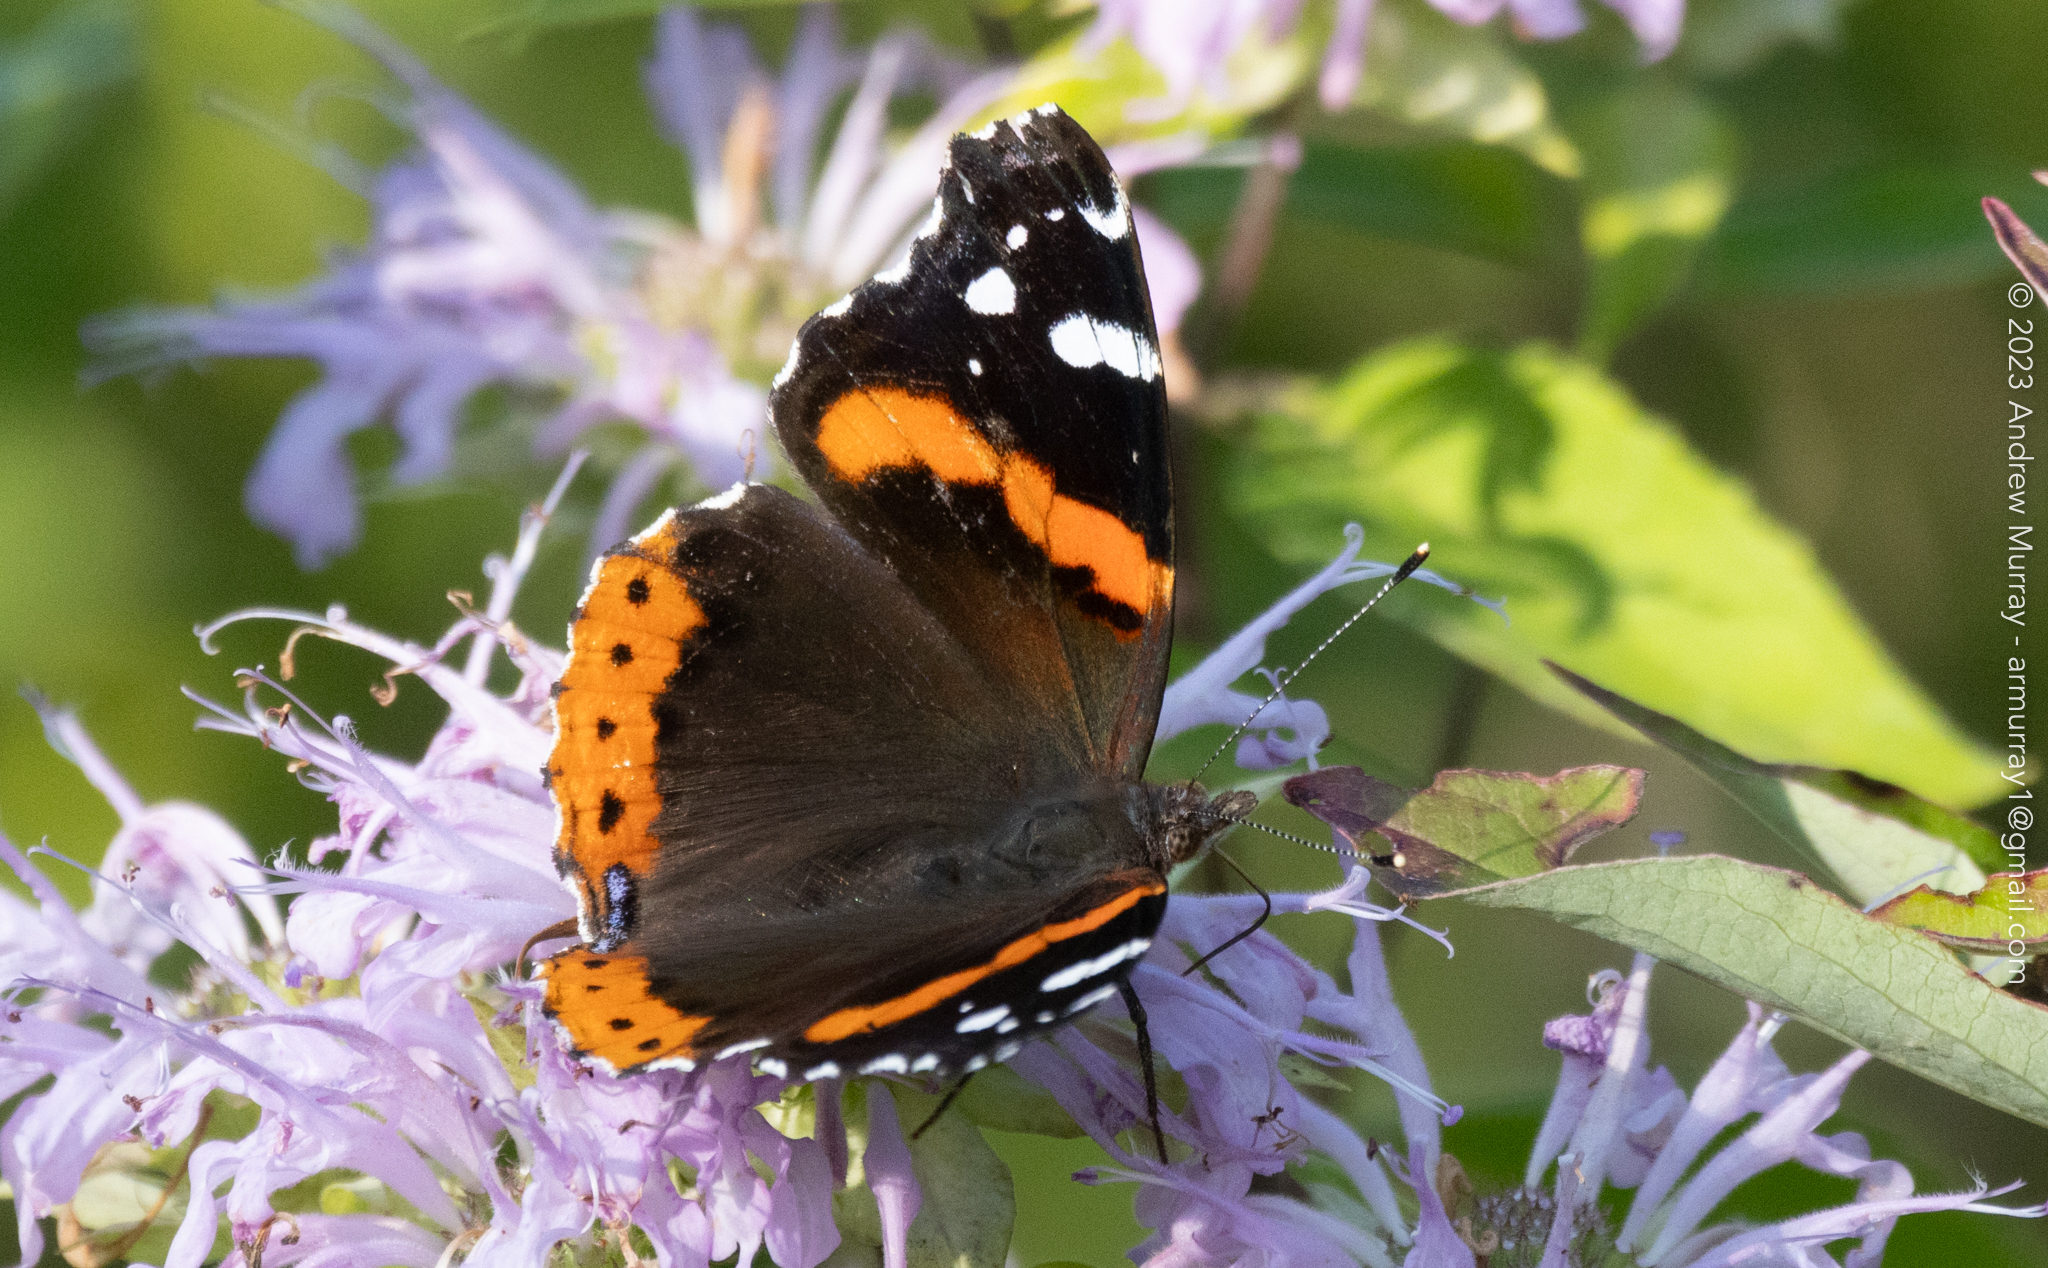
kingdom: Animalia
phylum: Arthropoda
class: Insecta
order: Lepidoptera
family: Nymphalidae
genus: Vanessa
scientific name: Vanessa atalanta
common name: Red admiral
